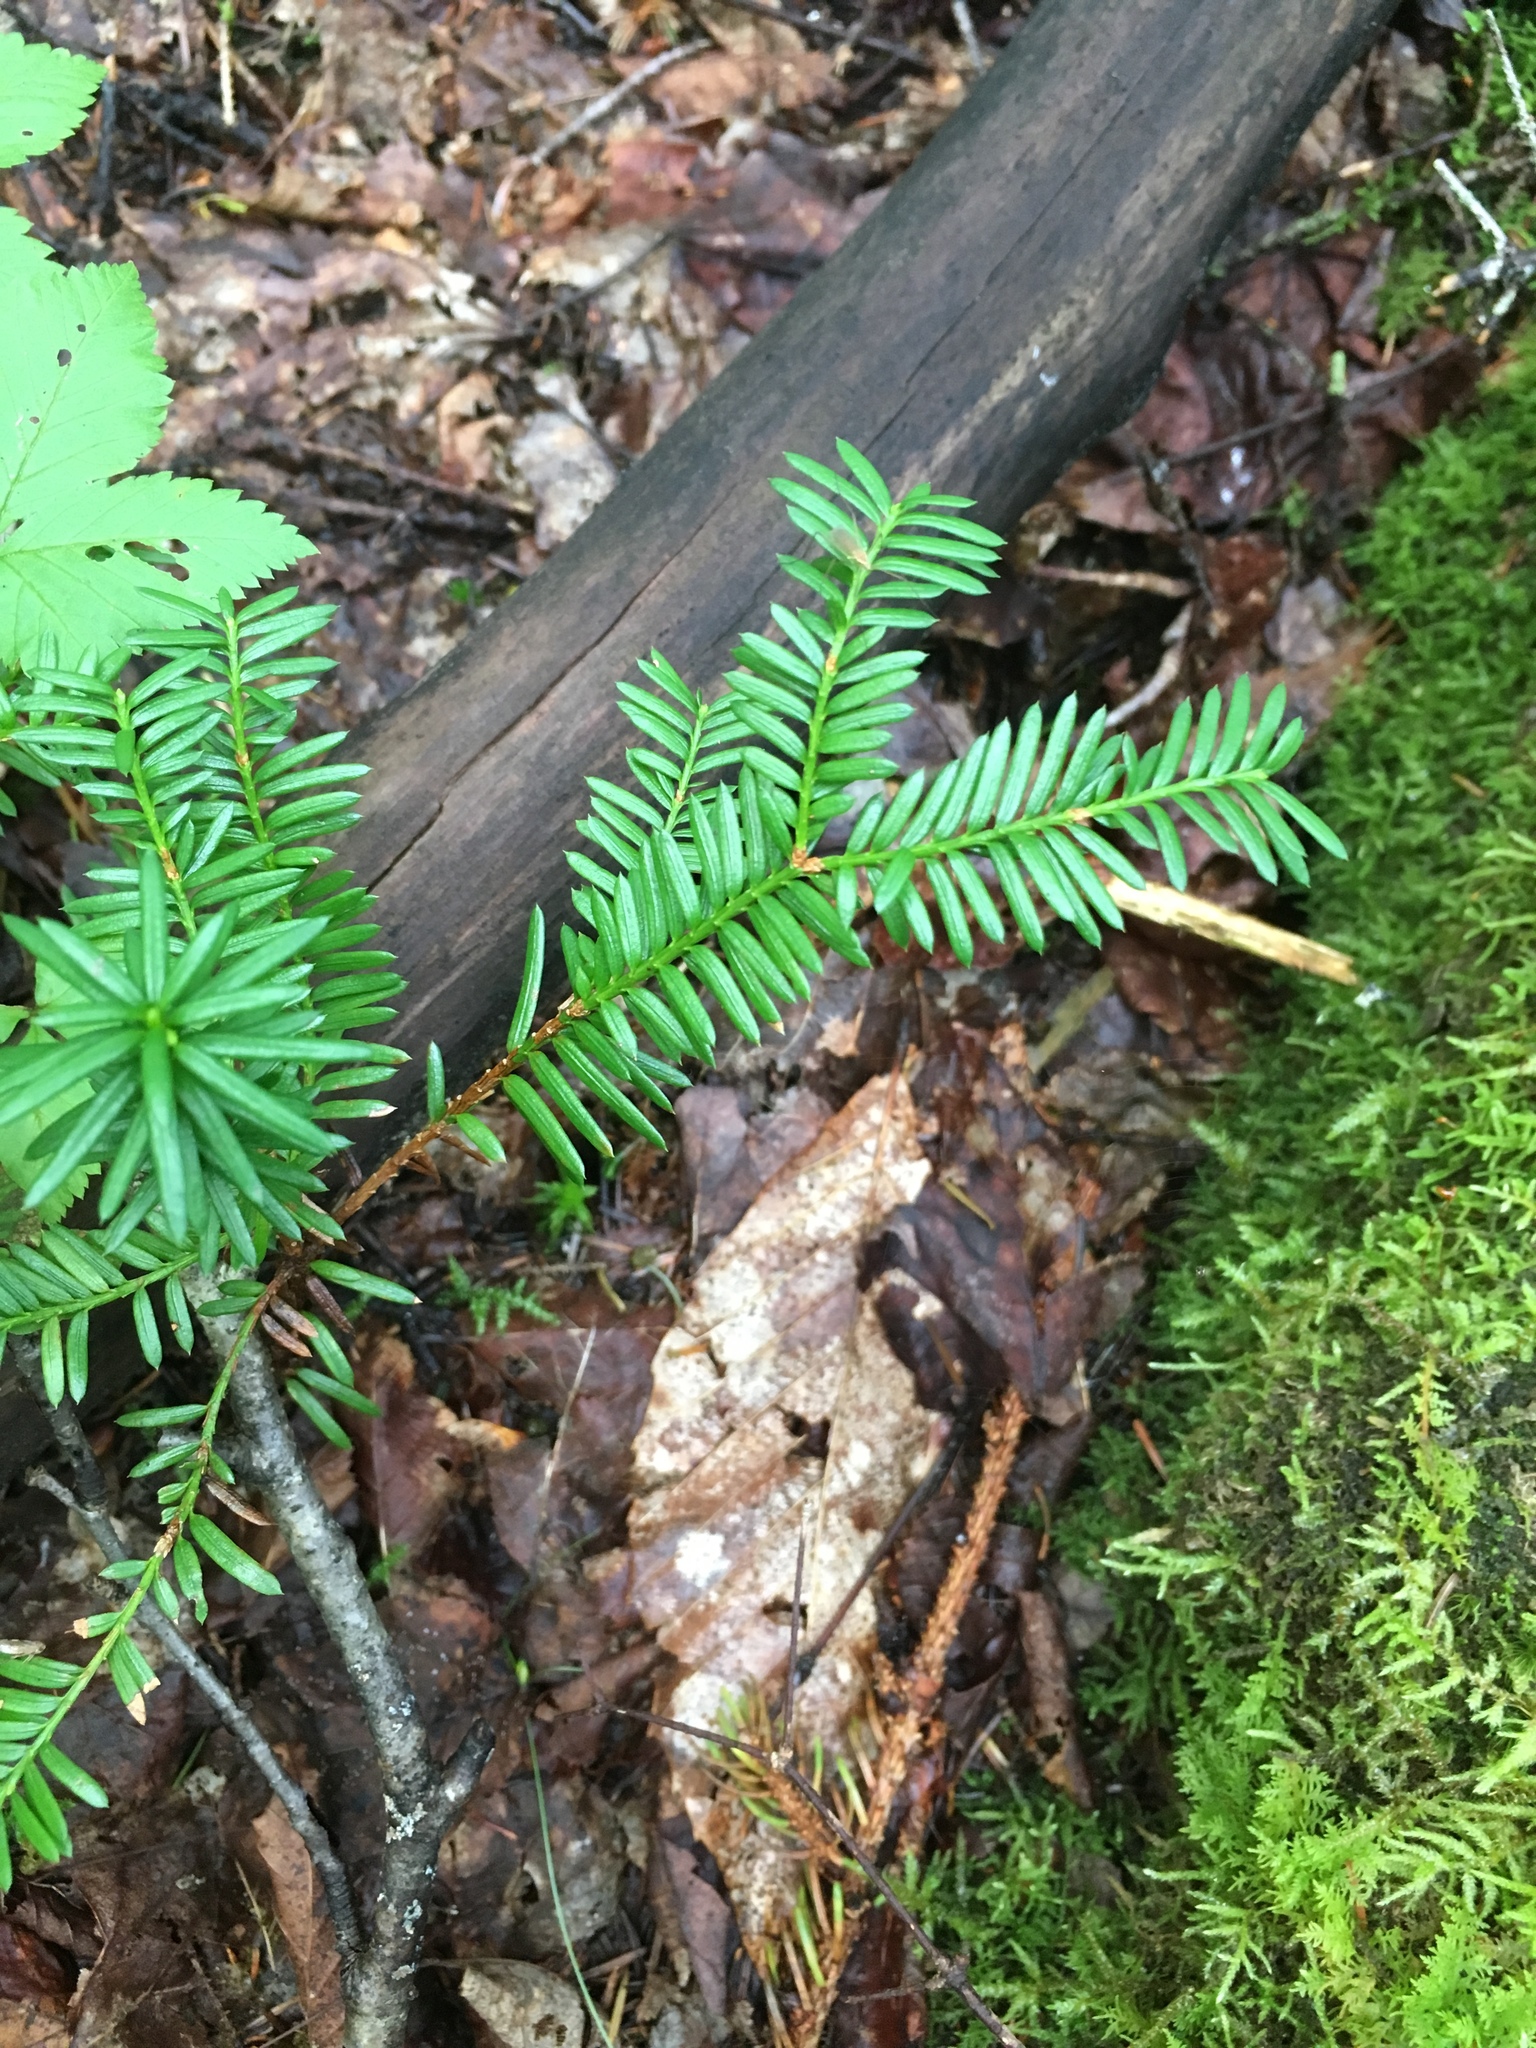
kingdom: Plantae
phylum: Tracheophyta
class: Pinopsida
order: Pinales
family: Taxaceae
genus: Taxus
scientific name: Taxus canadensis
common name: American yew
